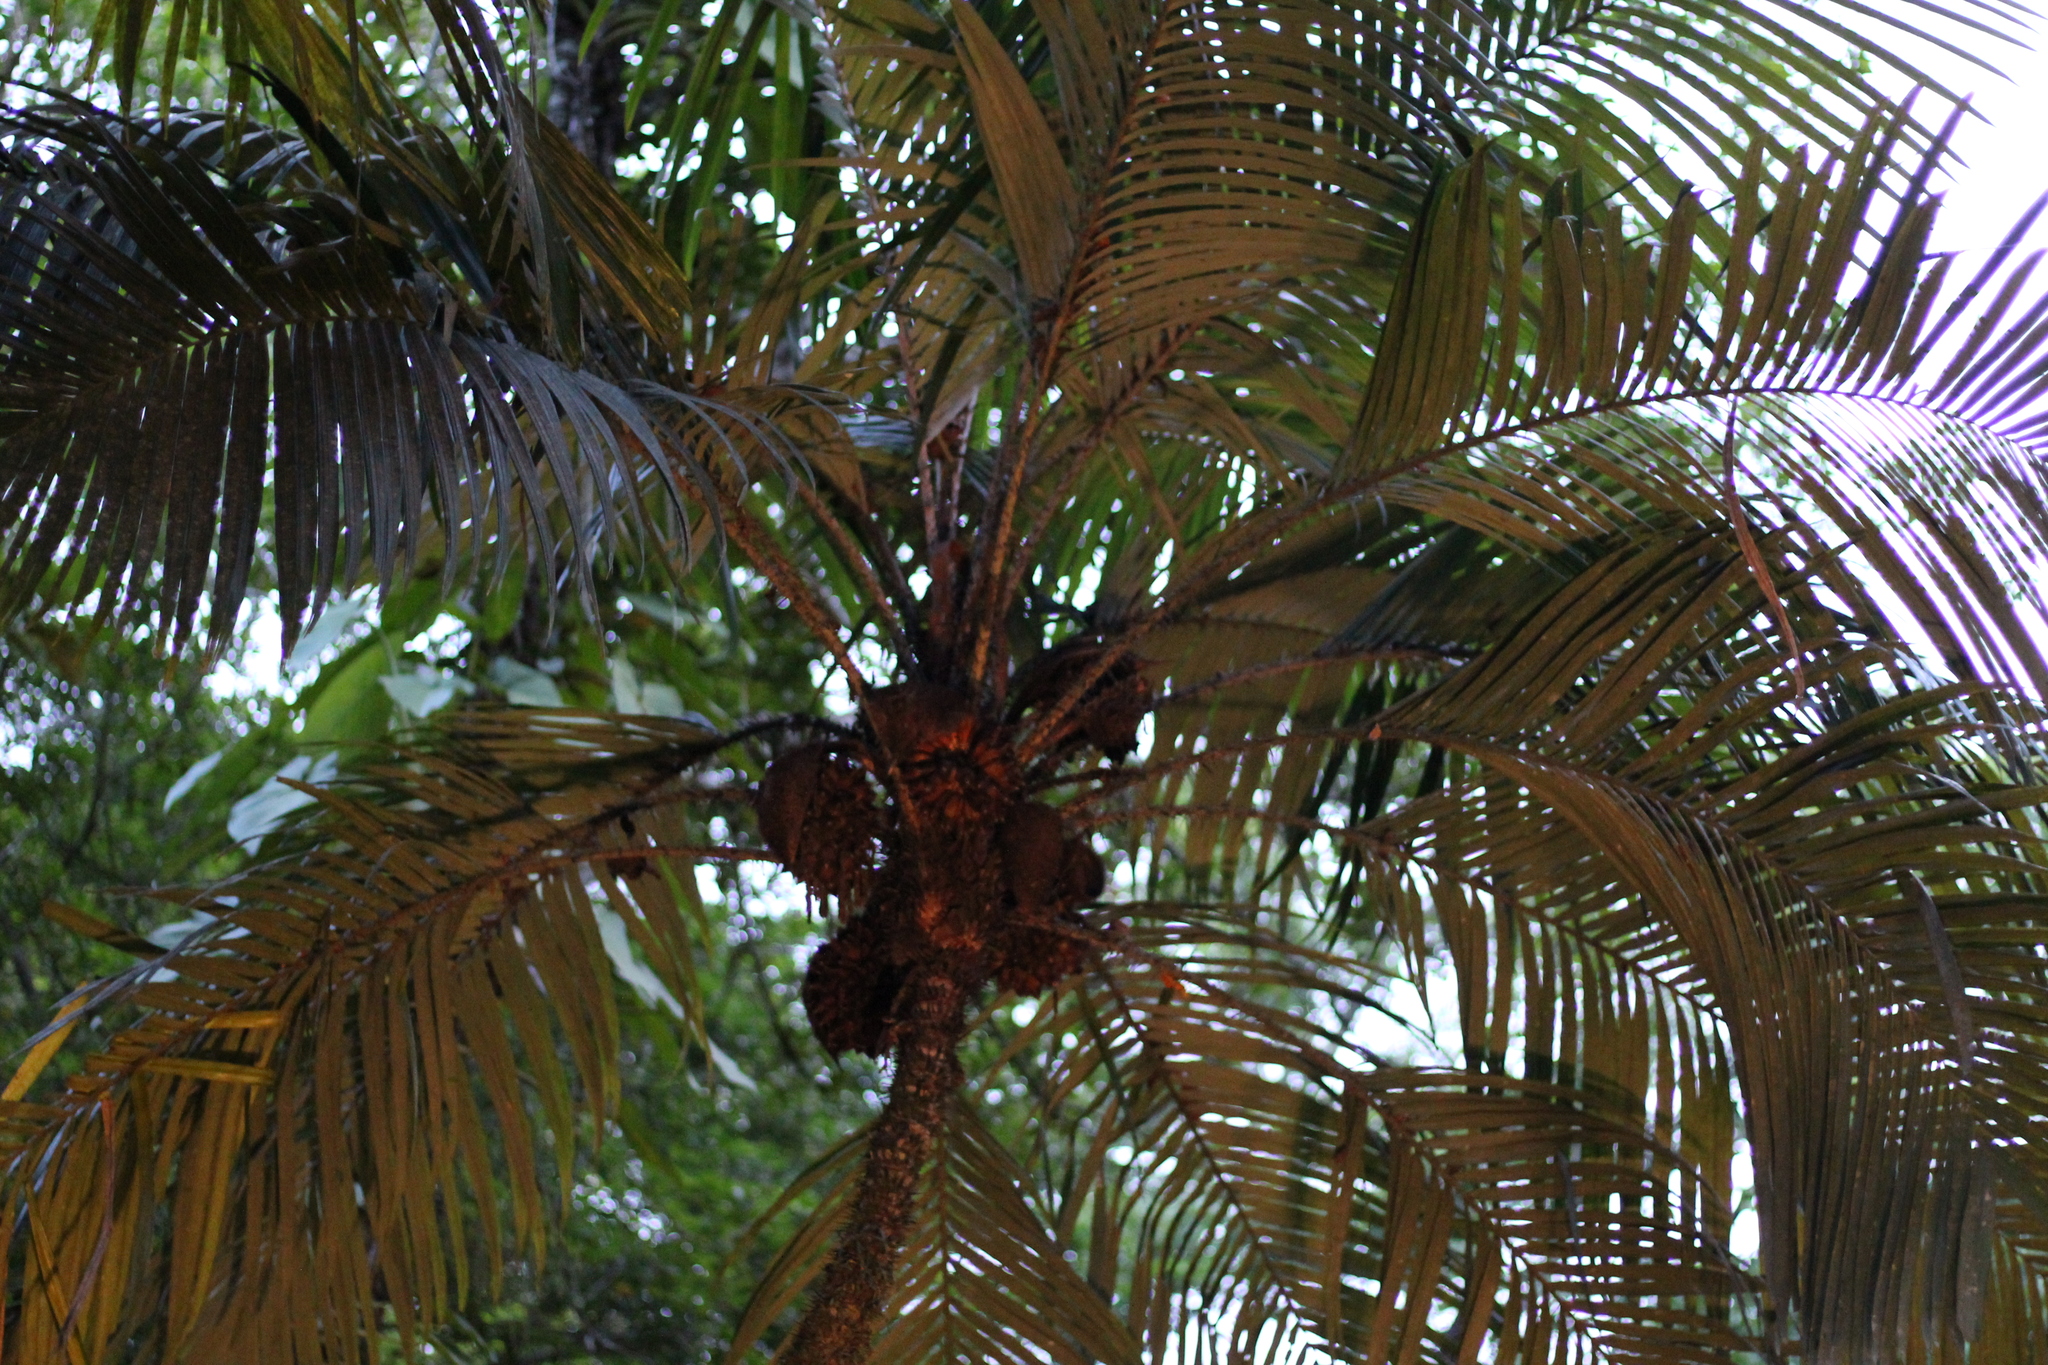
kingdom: Plantae
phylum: Tracheophyta
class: Liliopsida
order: Arecales
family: Arecaceae
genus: Astrocaryum
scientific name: Astrocaryum mexicanum
